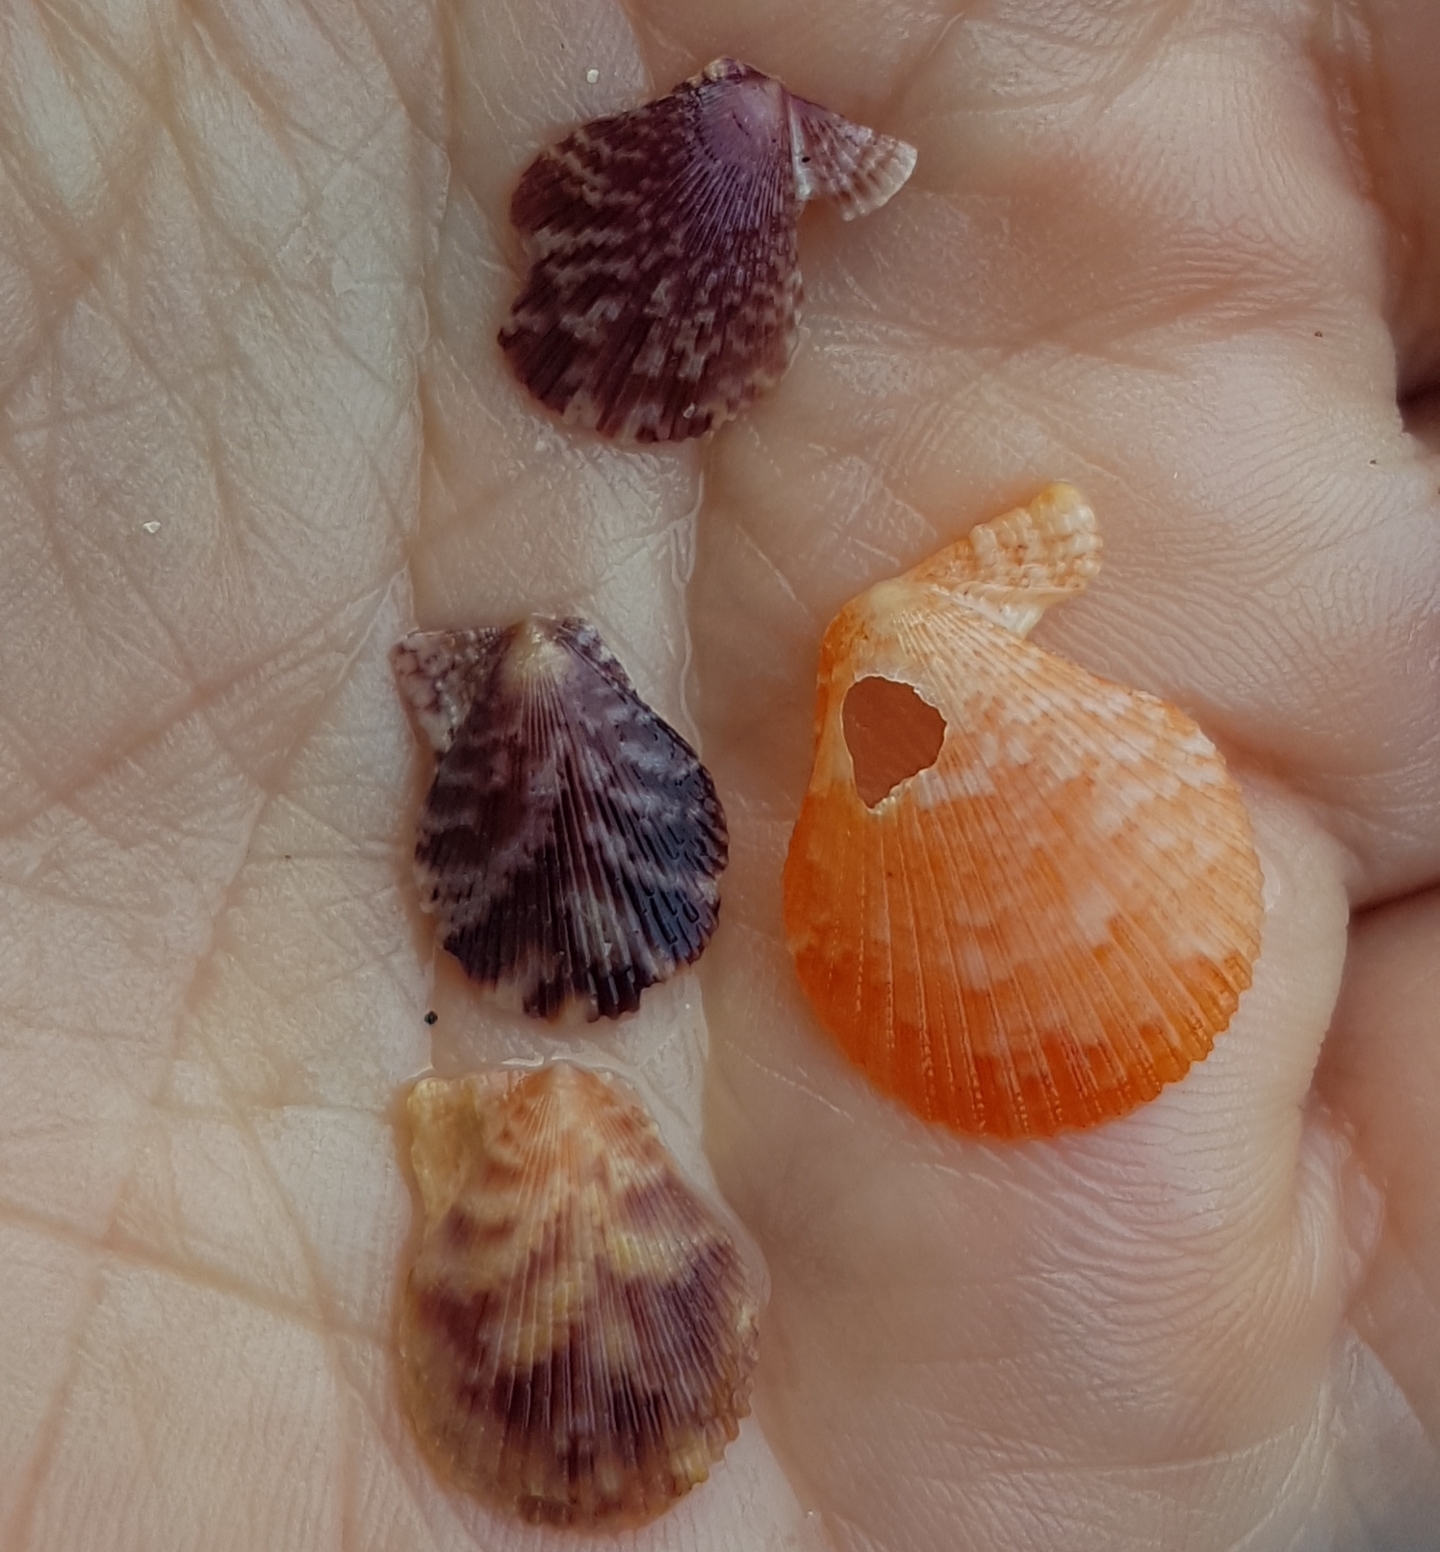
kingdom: Animalia
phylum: Mollusca
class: Bivalvia
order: Pectinida
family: Pectinidae
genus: Mimachlamys
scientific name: Mimachlamys varia
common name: Variegated scallop
